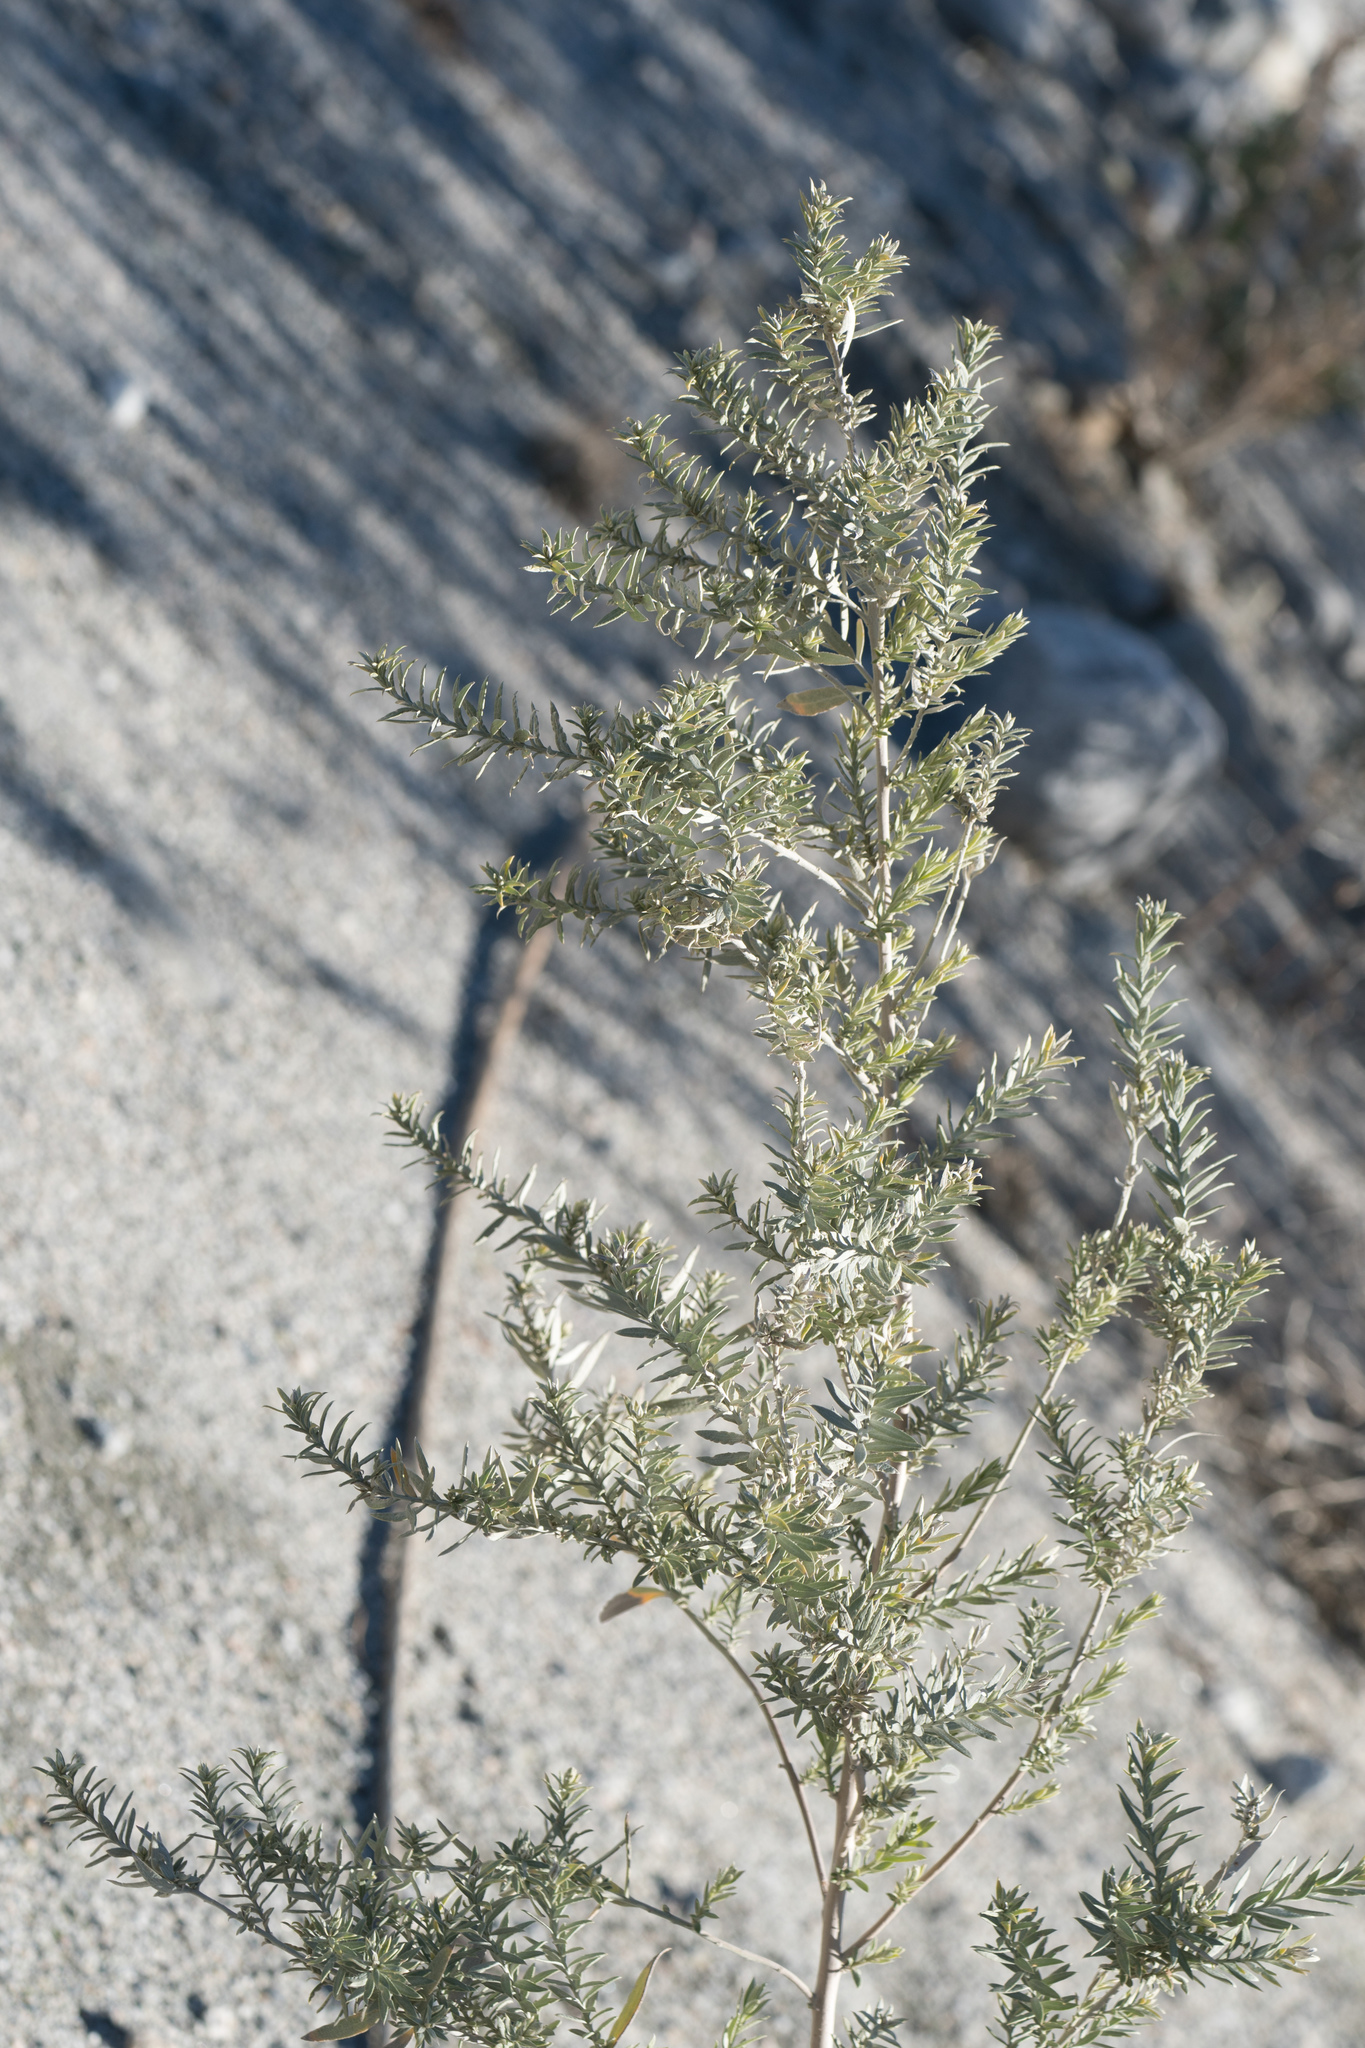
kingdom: Plantae
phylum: Tracheophyta
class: Magnoliopsida
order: Asterales
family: Asteraceae
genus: Pluchea
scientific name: Pluchea sericea
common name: Arrow-weed
